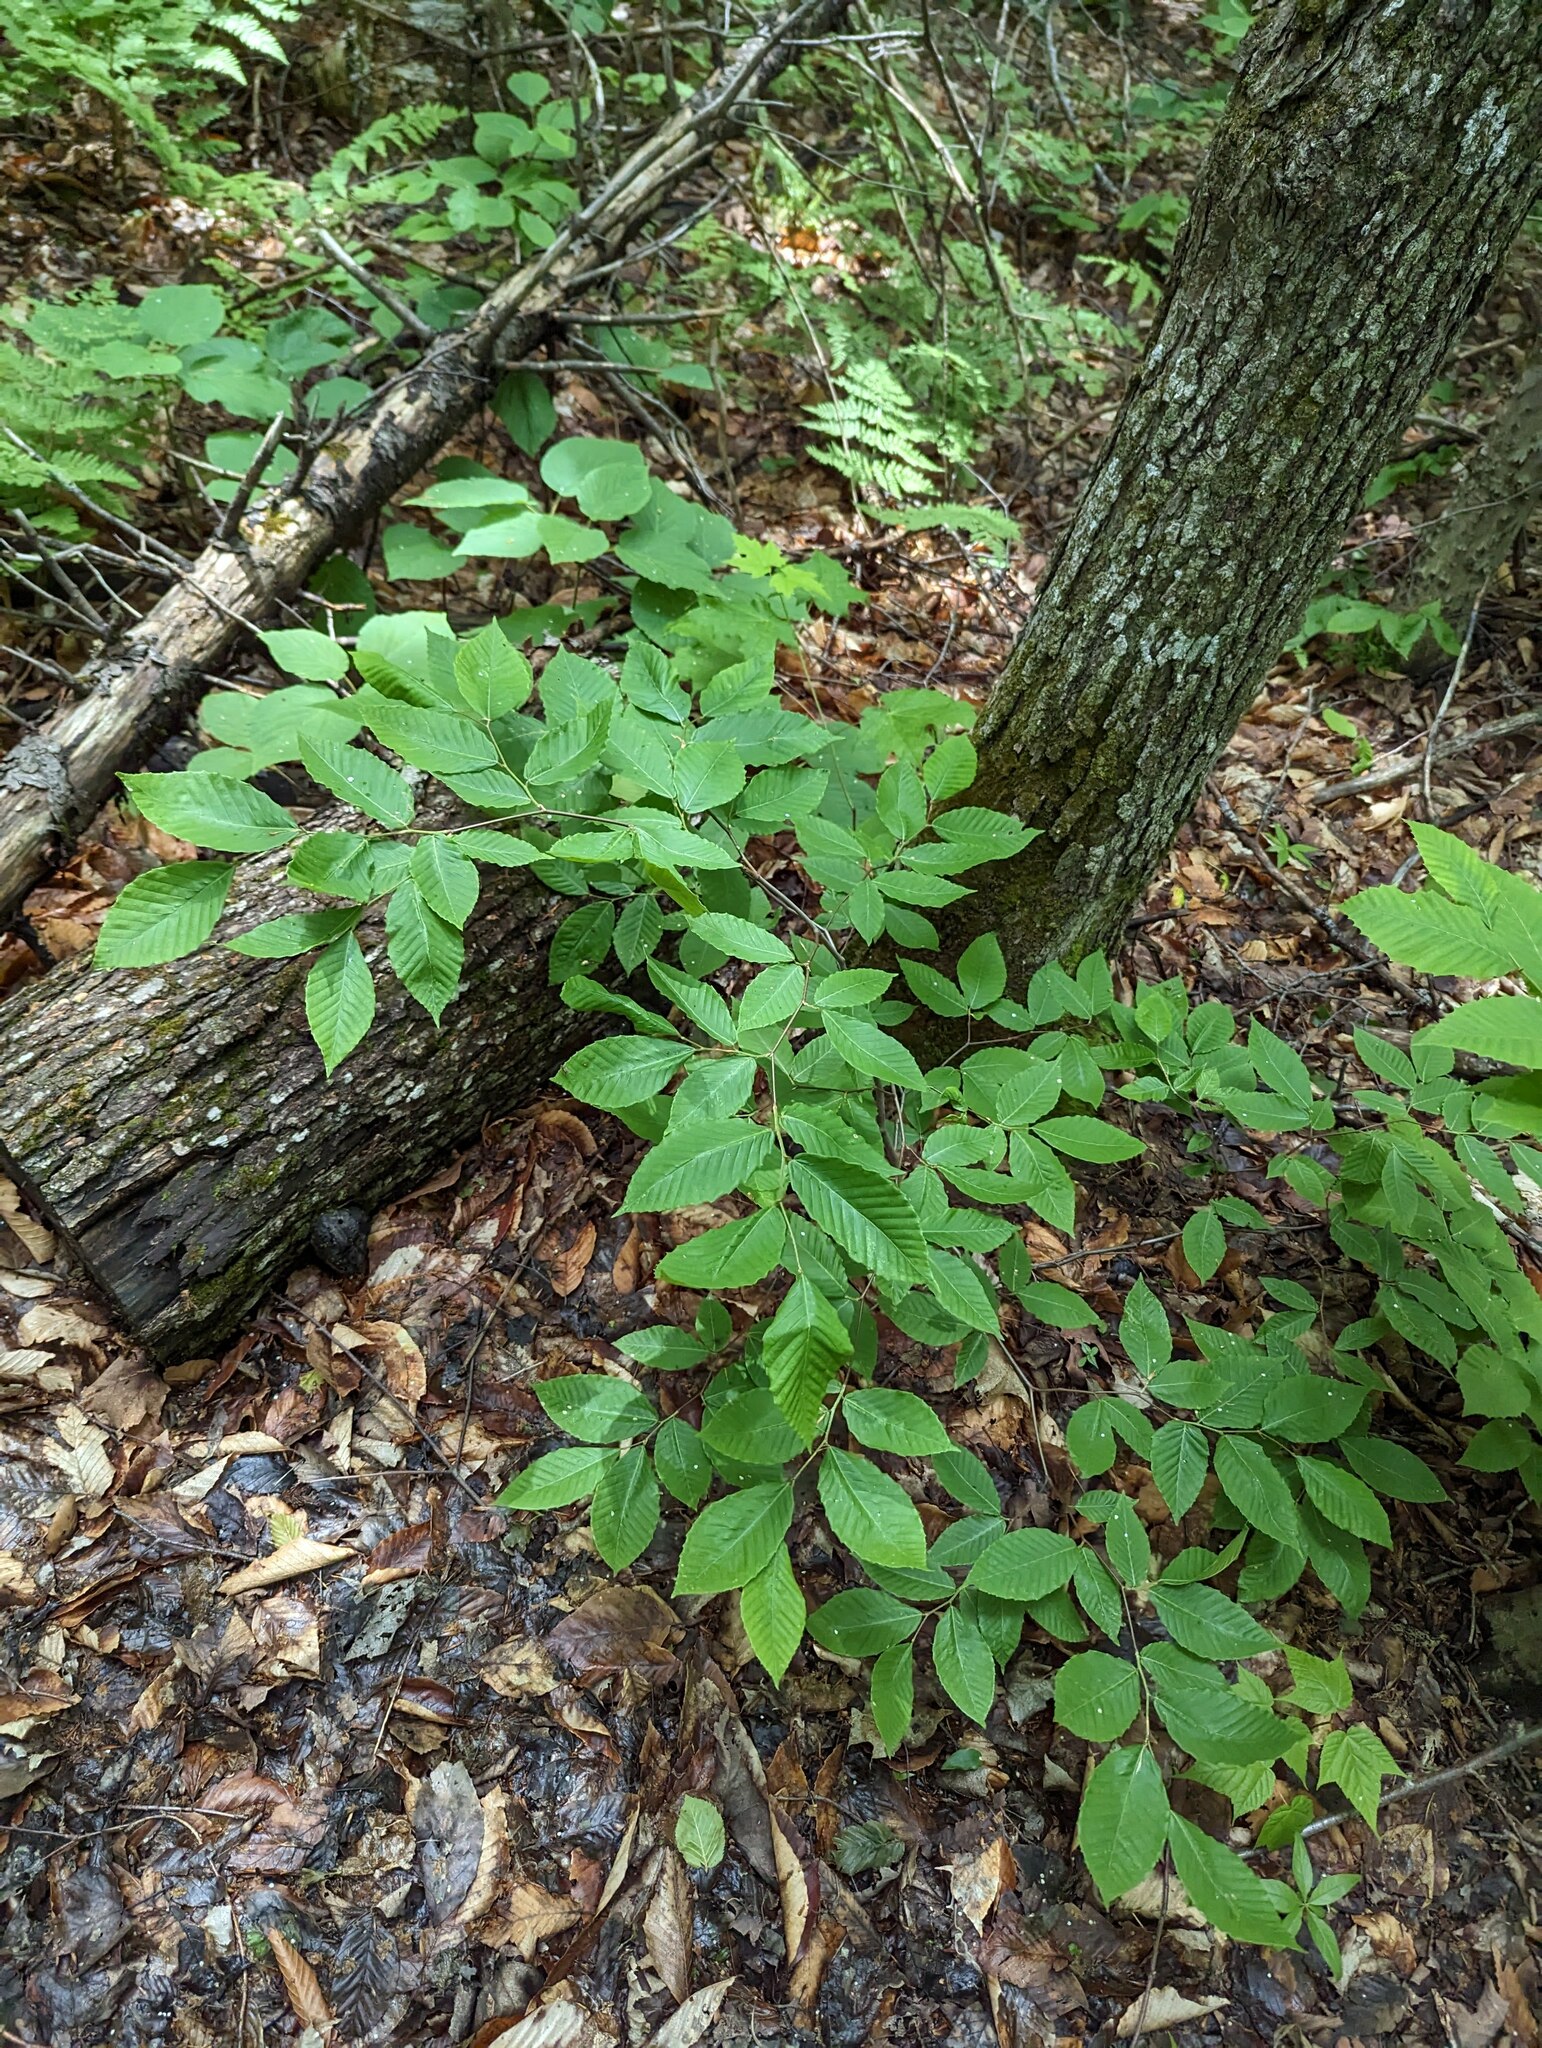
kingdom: Plantae
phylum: Tracheophyta
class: Magnoliopsida
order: Fagales
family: Fagaceae
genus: Fagus
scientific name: Fagus grandifolia
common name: American beech
